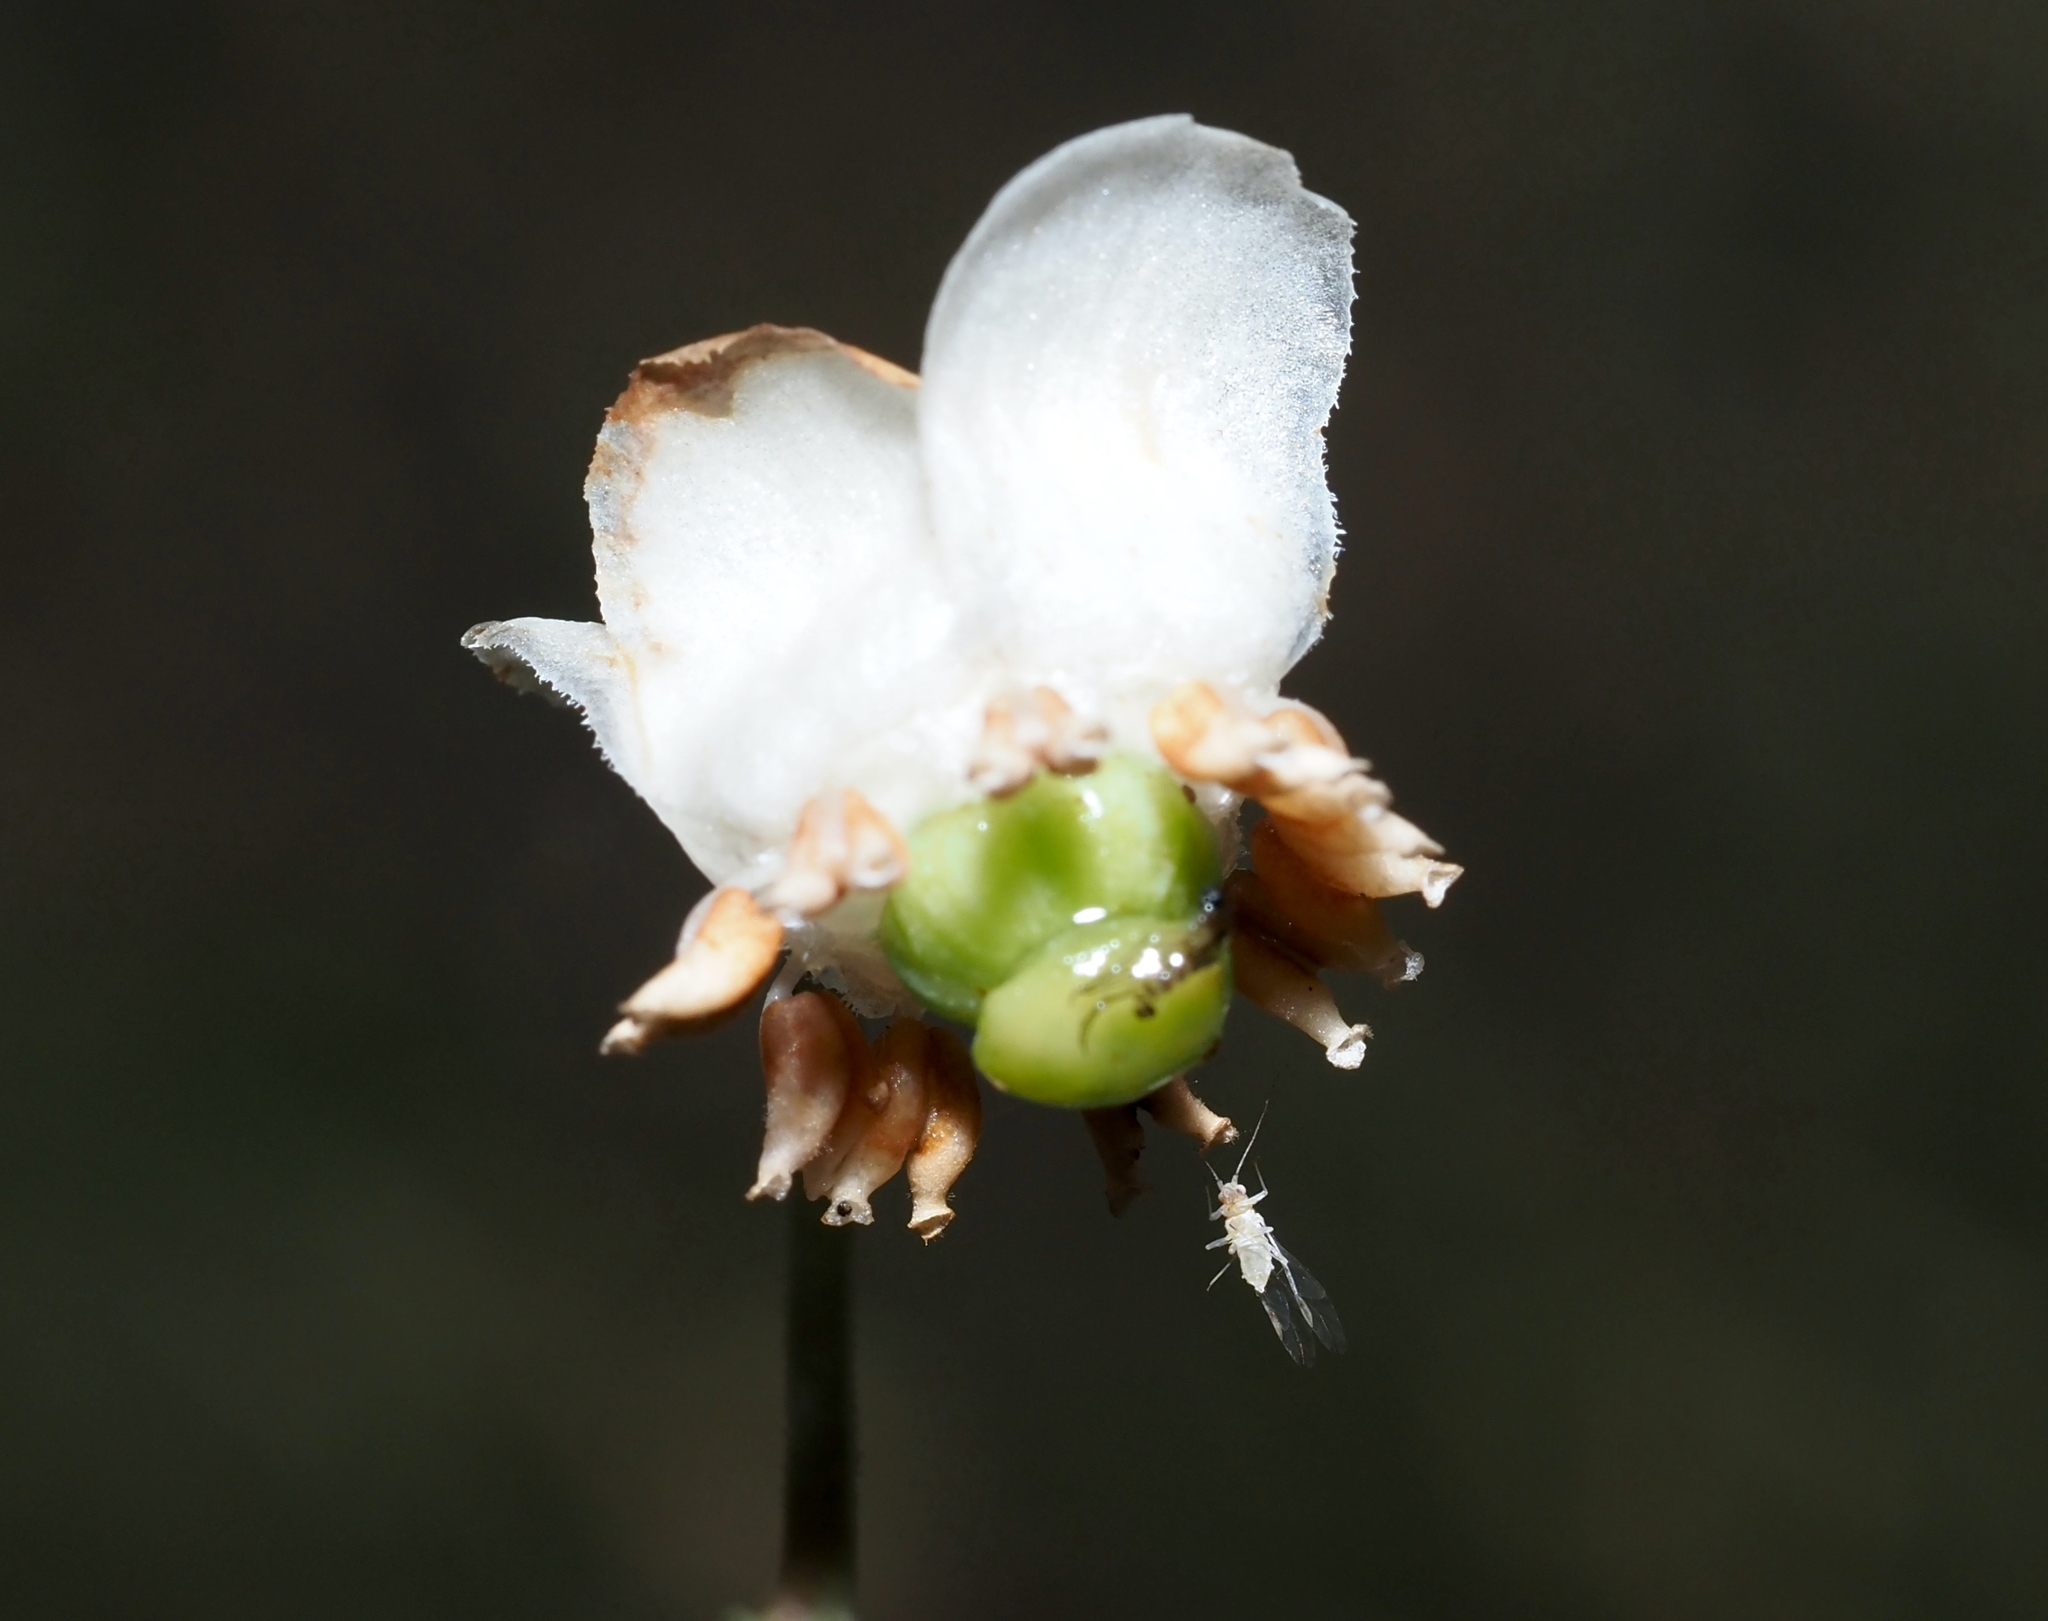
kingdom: Plantae
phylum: Tracheophyta
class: Magnoliopsida
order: Ericales
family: Ericaceae
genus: Chimaphila
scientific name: Chimaphila maculata
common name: Spotted pipsissewa
